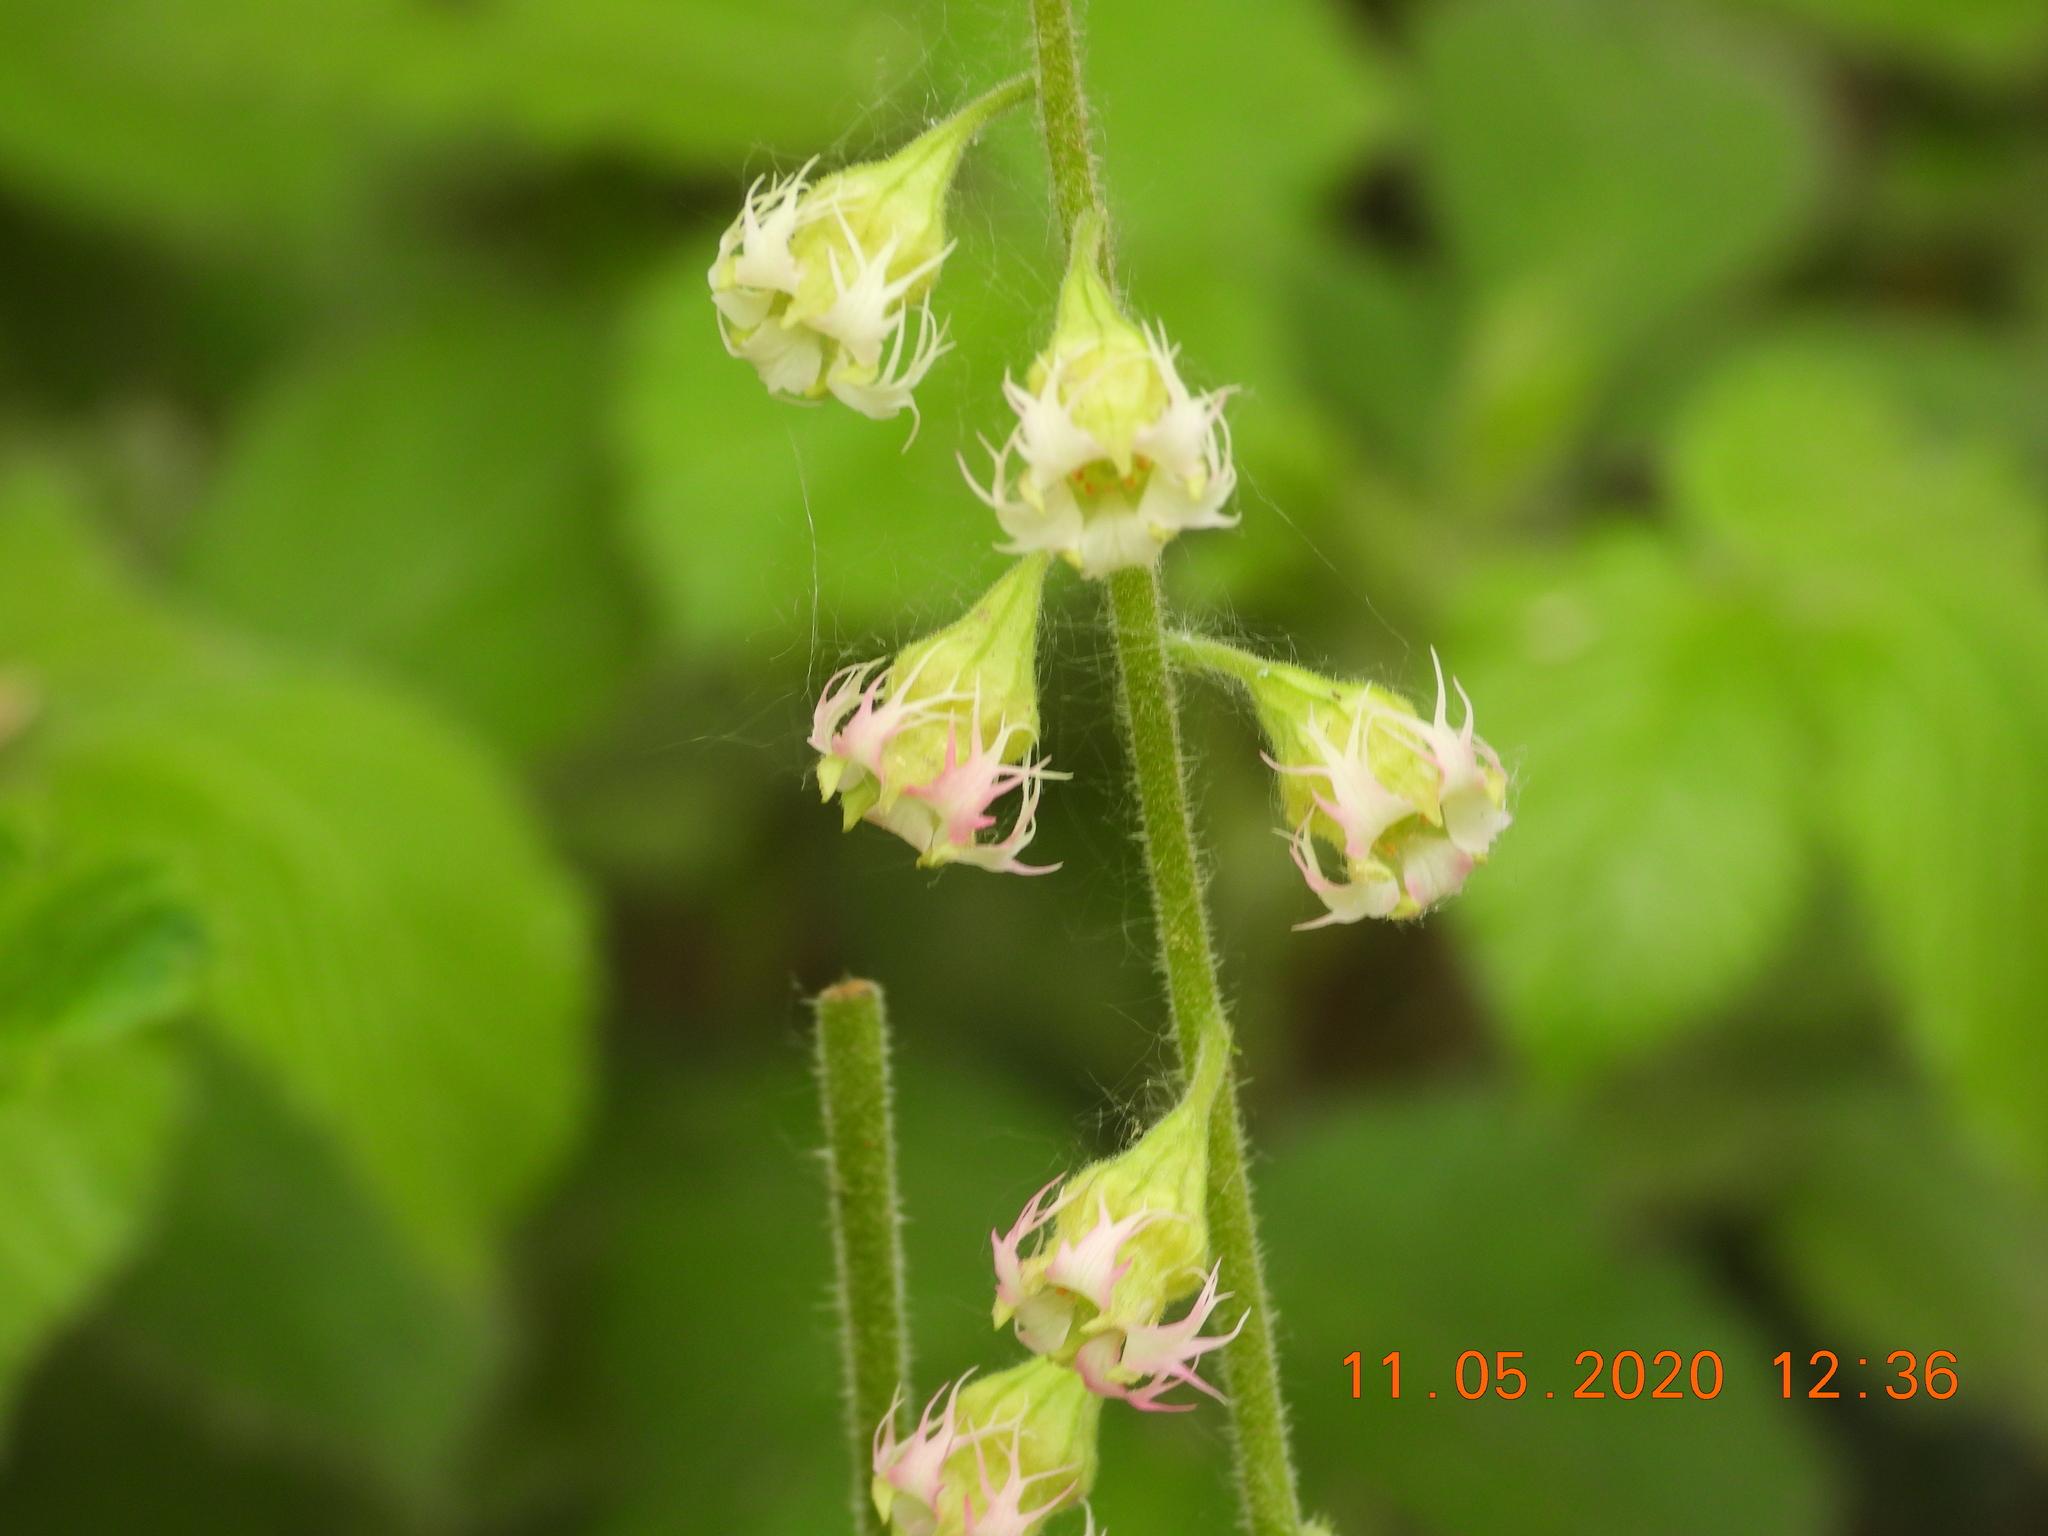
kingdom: Plantae
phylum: Tracheophyta
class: Magnoliopsida
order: Saxifragales
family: Saxifragaceae
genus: Tellima
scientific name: Tellima grandiflora
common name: Fringecups
